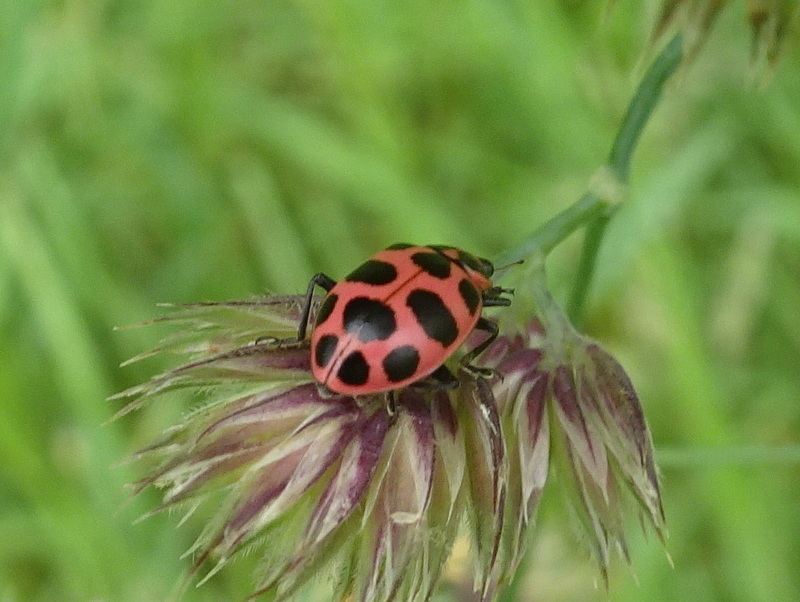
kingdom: Animalia
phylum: Arthropoda
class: Insecta
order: Coleoptera
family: Coccinellidae
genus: Coleomegilla
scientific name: Coleomegilla maculata
